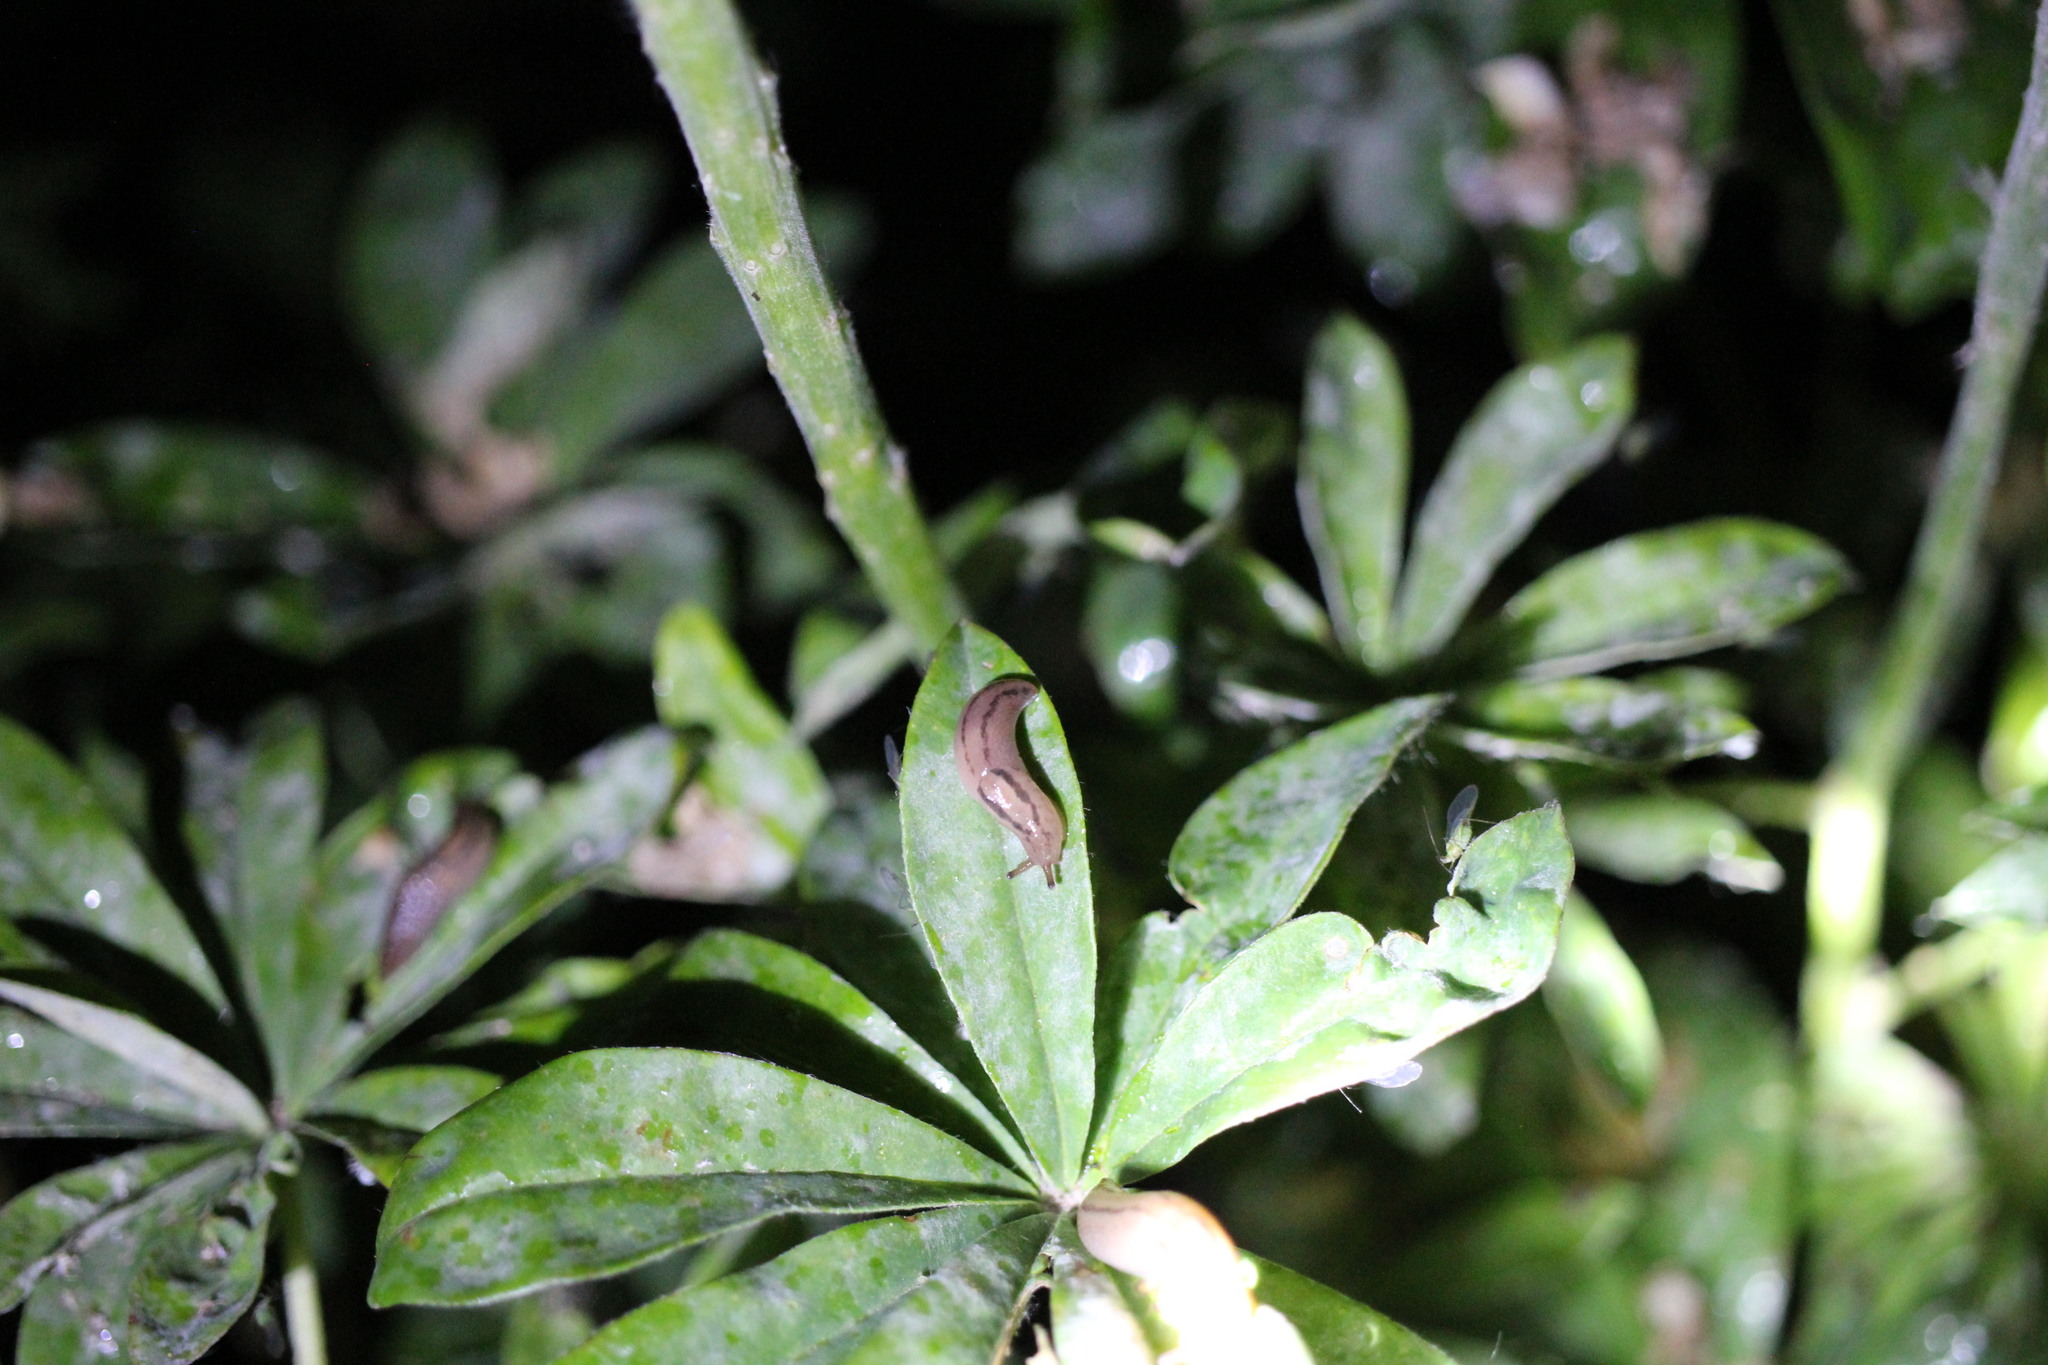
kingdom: Animalia
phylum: Mollusca
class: Gastropoda
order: Stylommatophora
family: Limacidae
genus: Ambigolimax
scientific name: Ambigolimax
